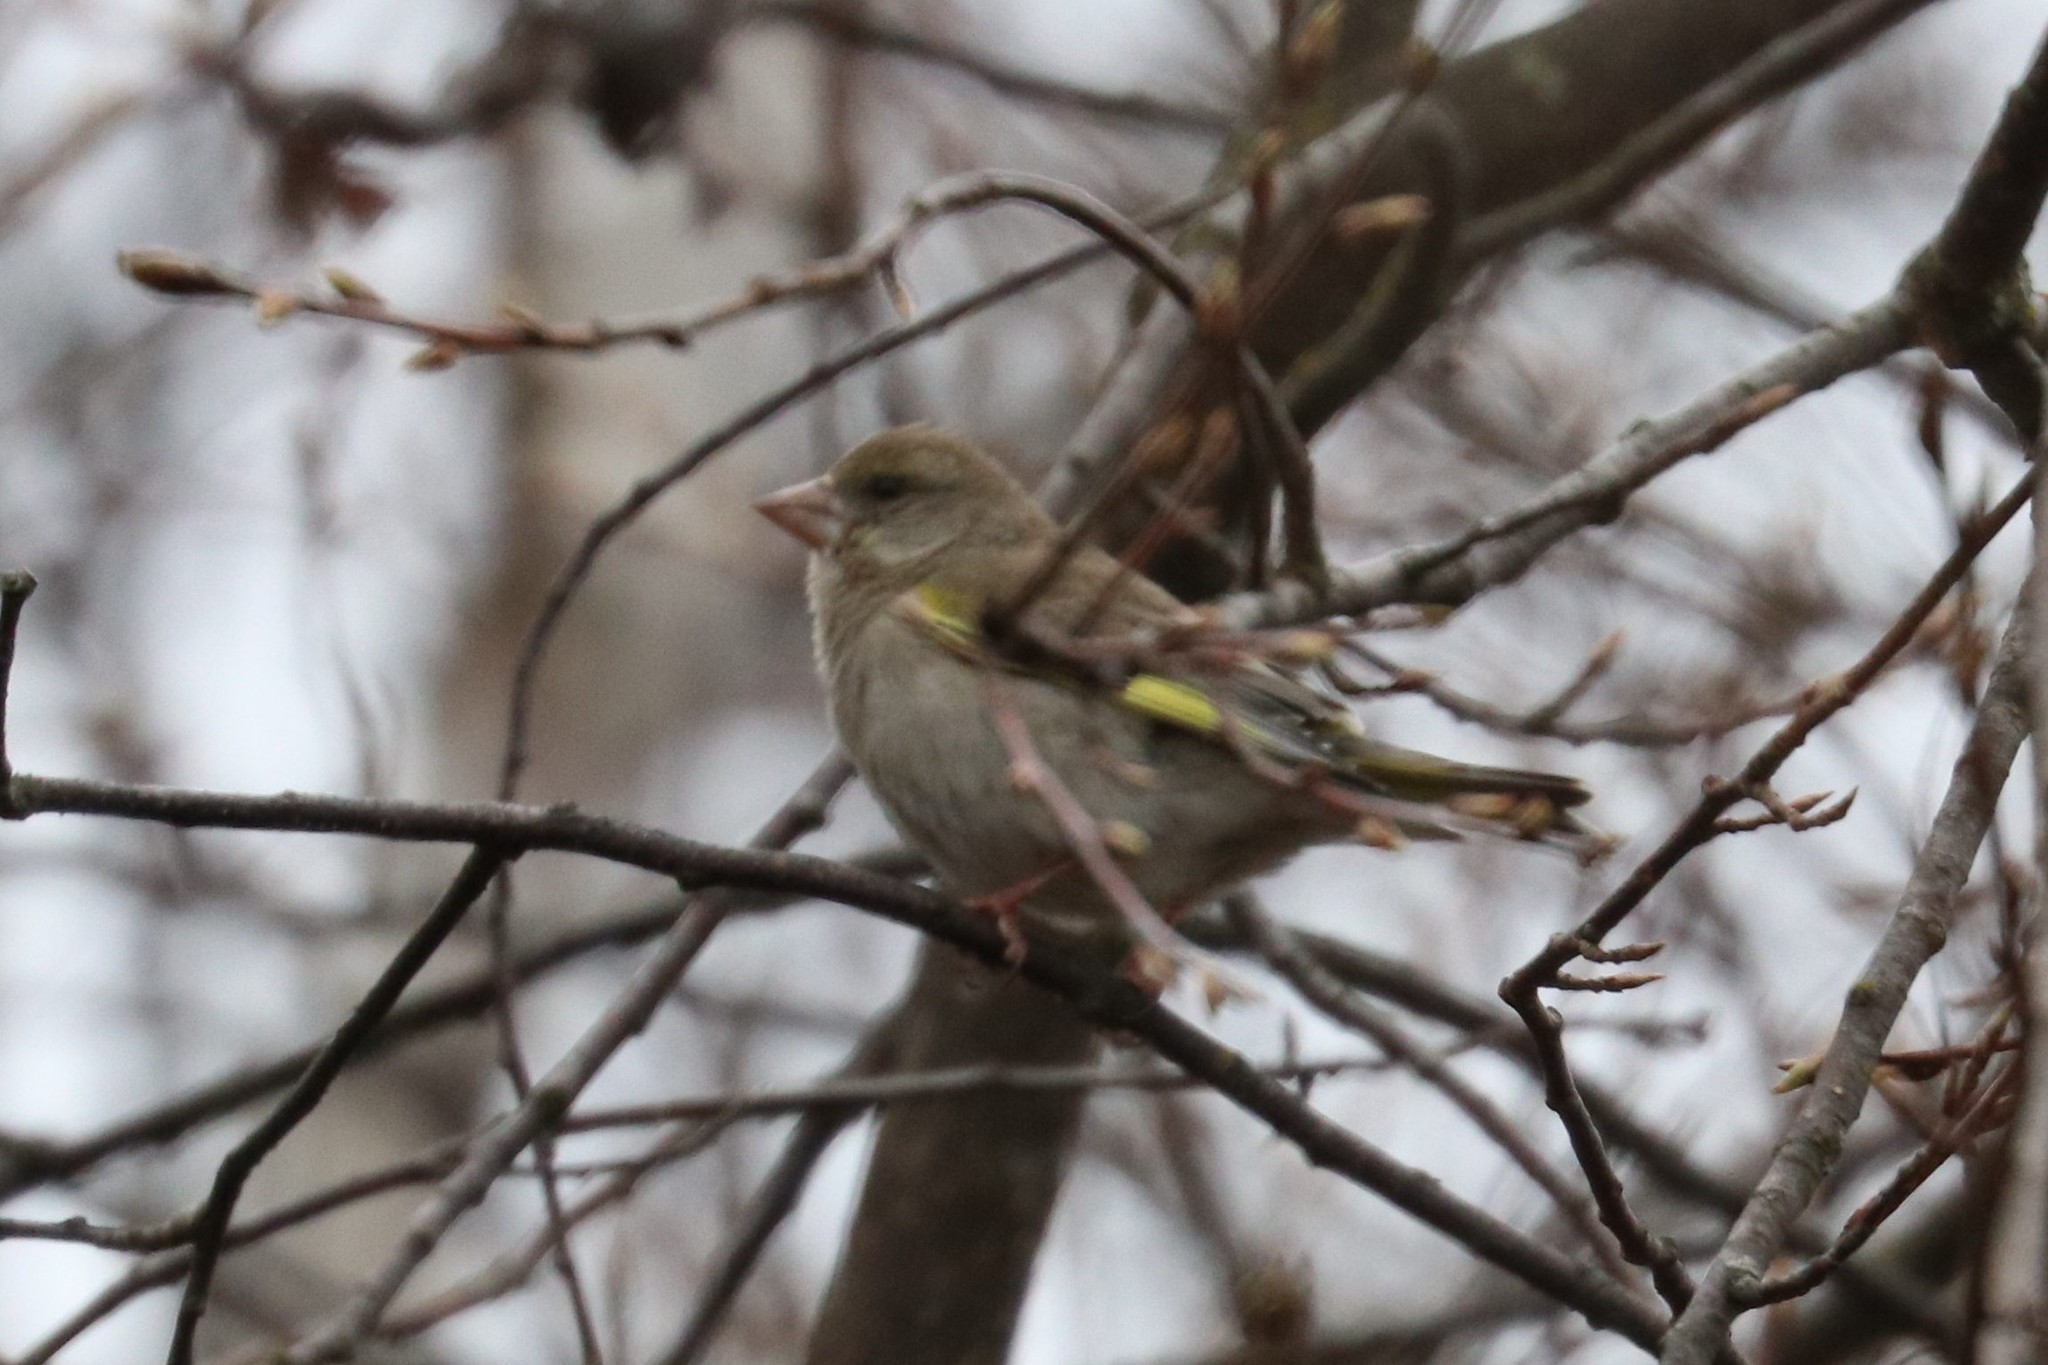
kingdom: Plantae
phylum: Tracheophyta
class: Liliopsida
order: Poales
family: Poaceae
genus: Chloris
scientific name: Chloris chloris
